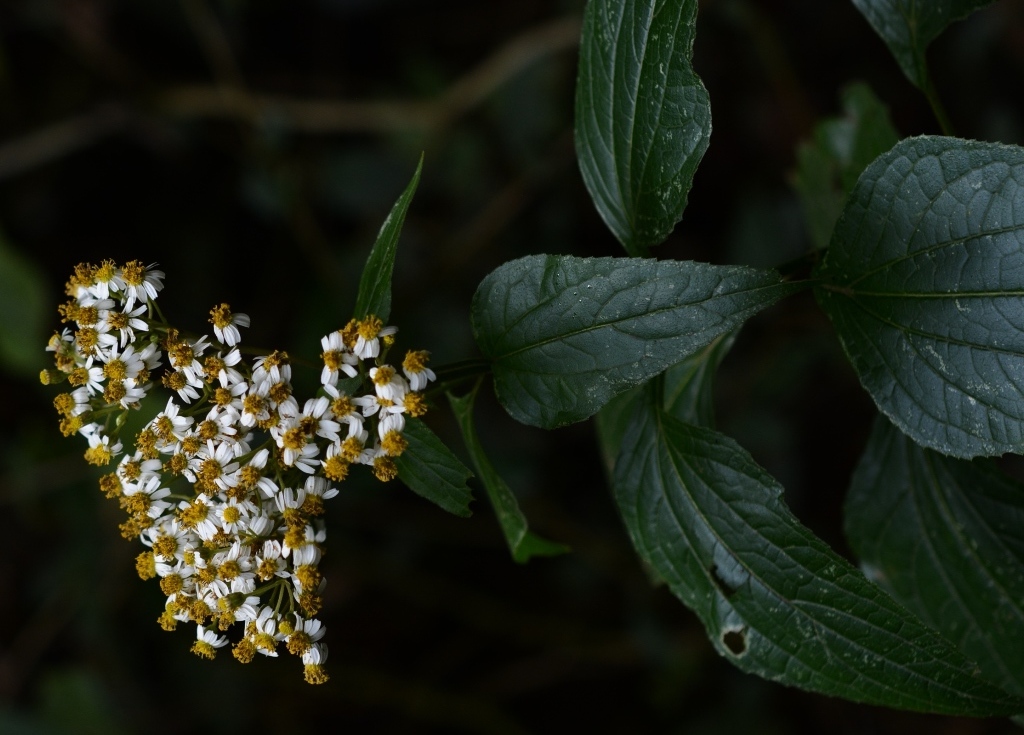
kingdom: Plantae
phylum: Tracheophyta
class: Magnoliopsida
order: Asterales
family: Asteraceae
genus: Alloispermum
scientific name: Alloispermum integrifolium
